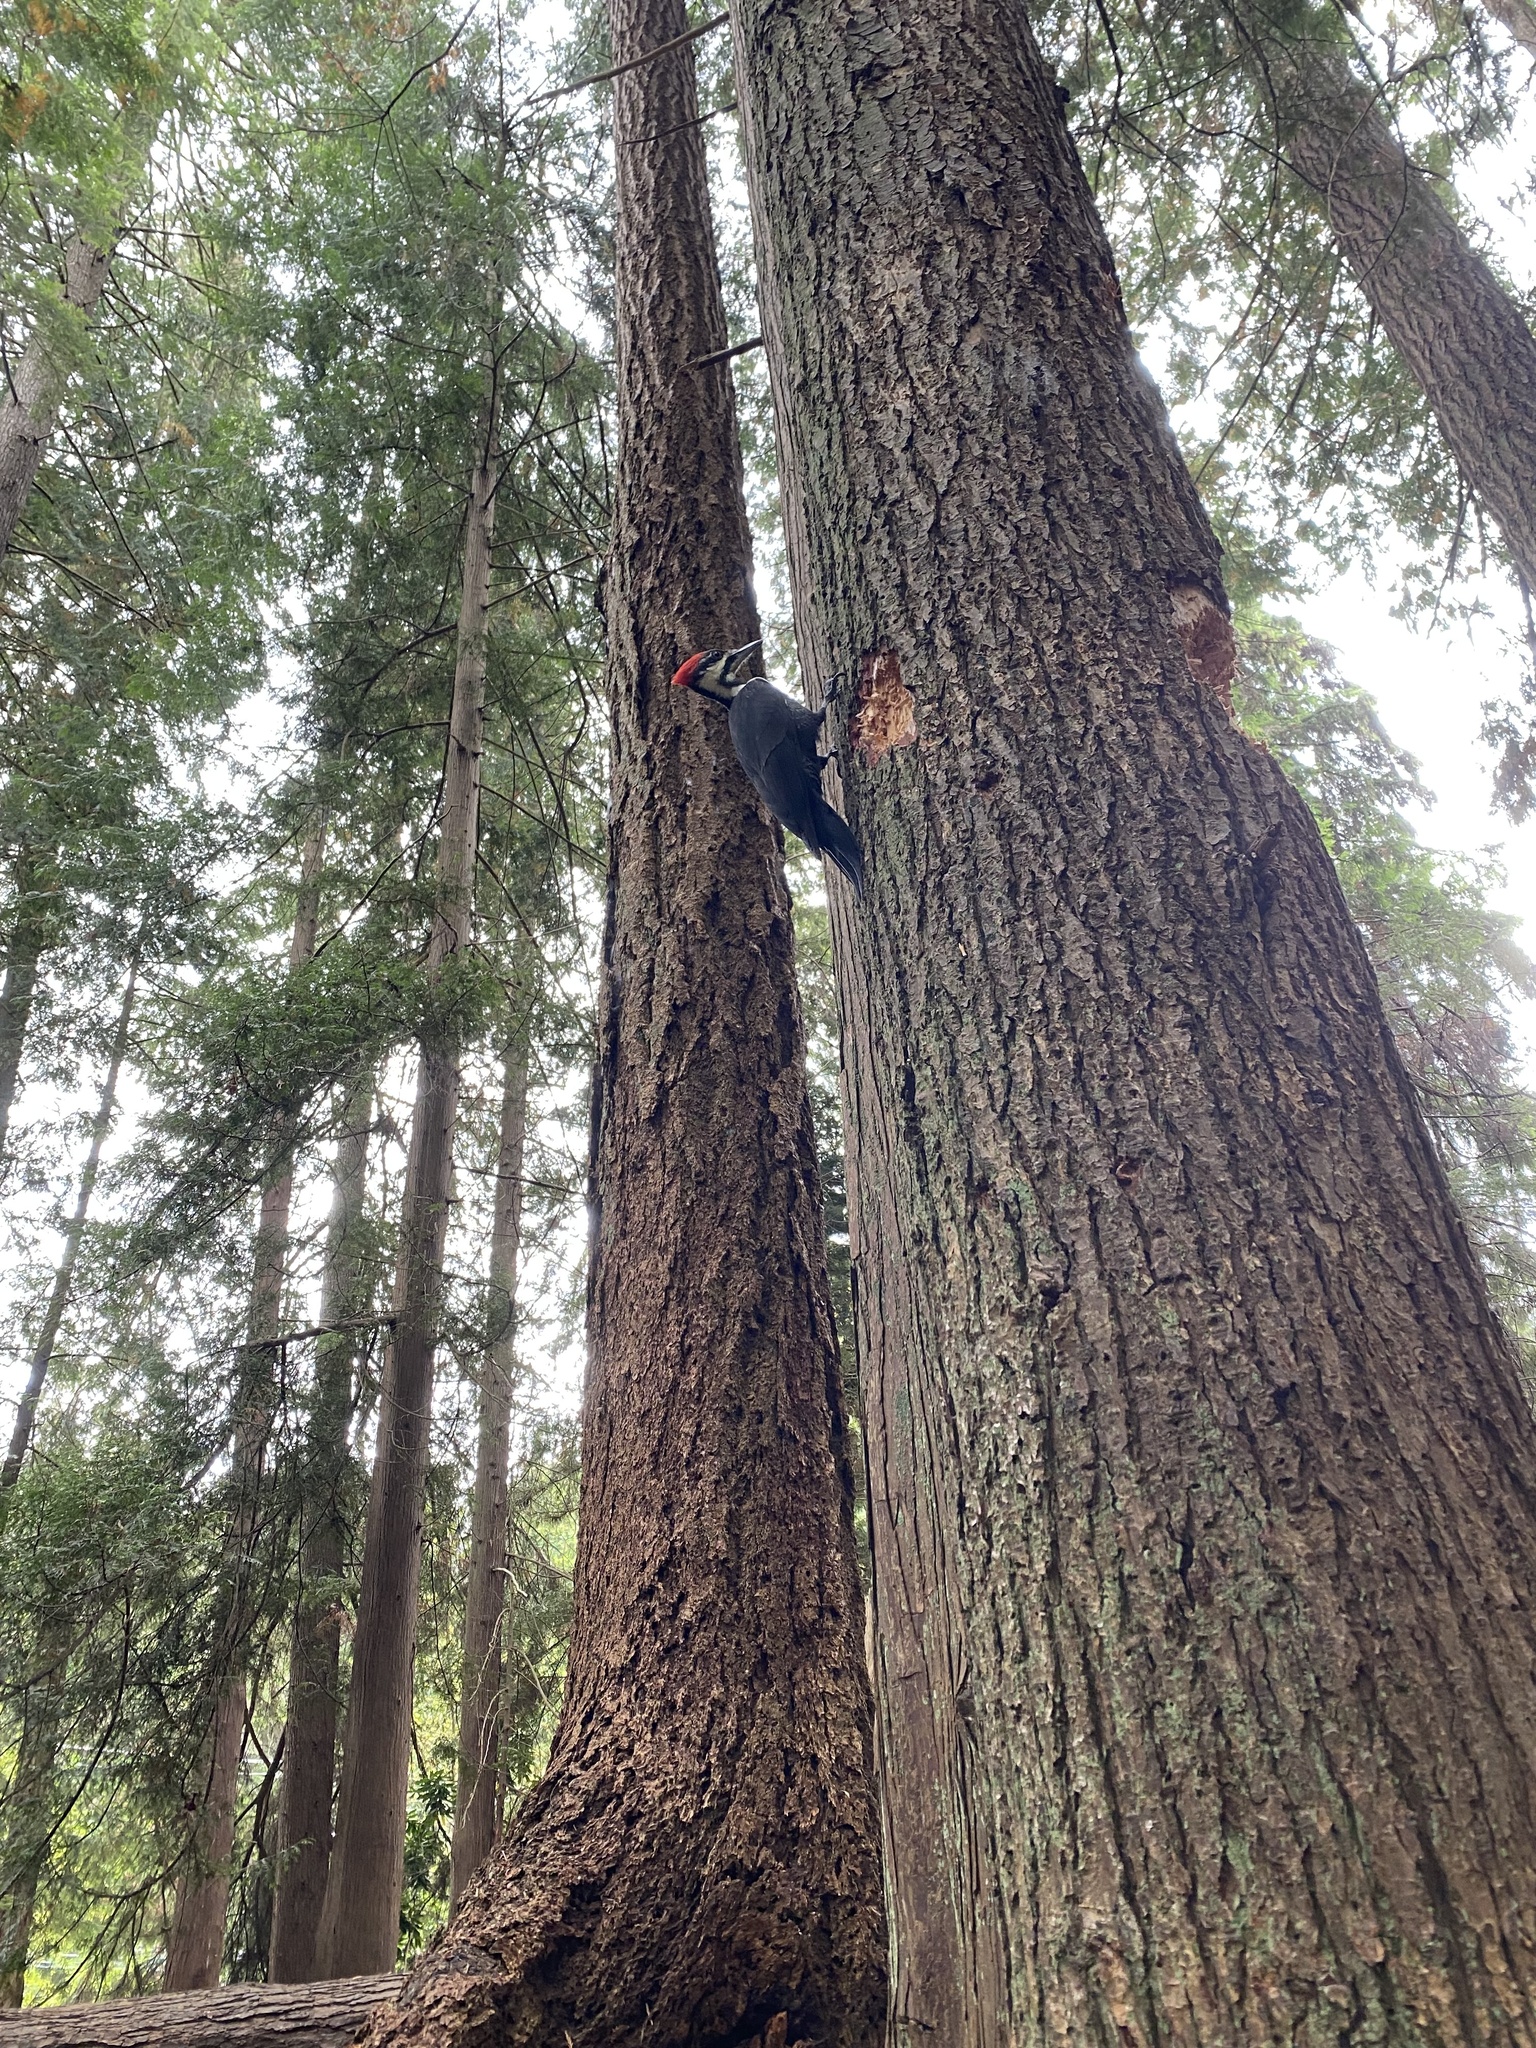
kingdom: Animalia
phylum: Chordata
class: Aves
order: Piciformes
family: Picidae
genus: Dryocopus
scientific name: Dryocopus pileatus
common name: Pileated woodpecker
